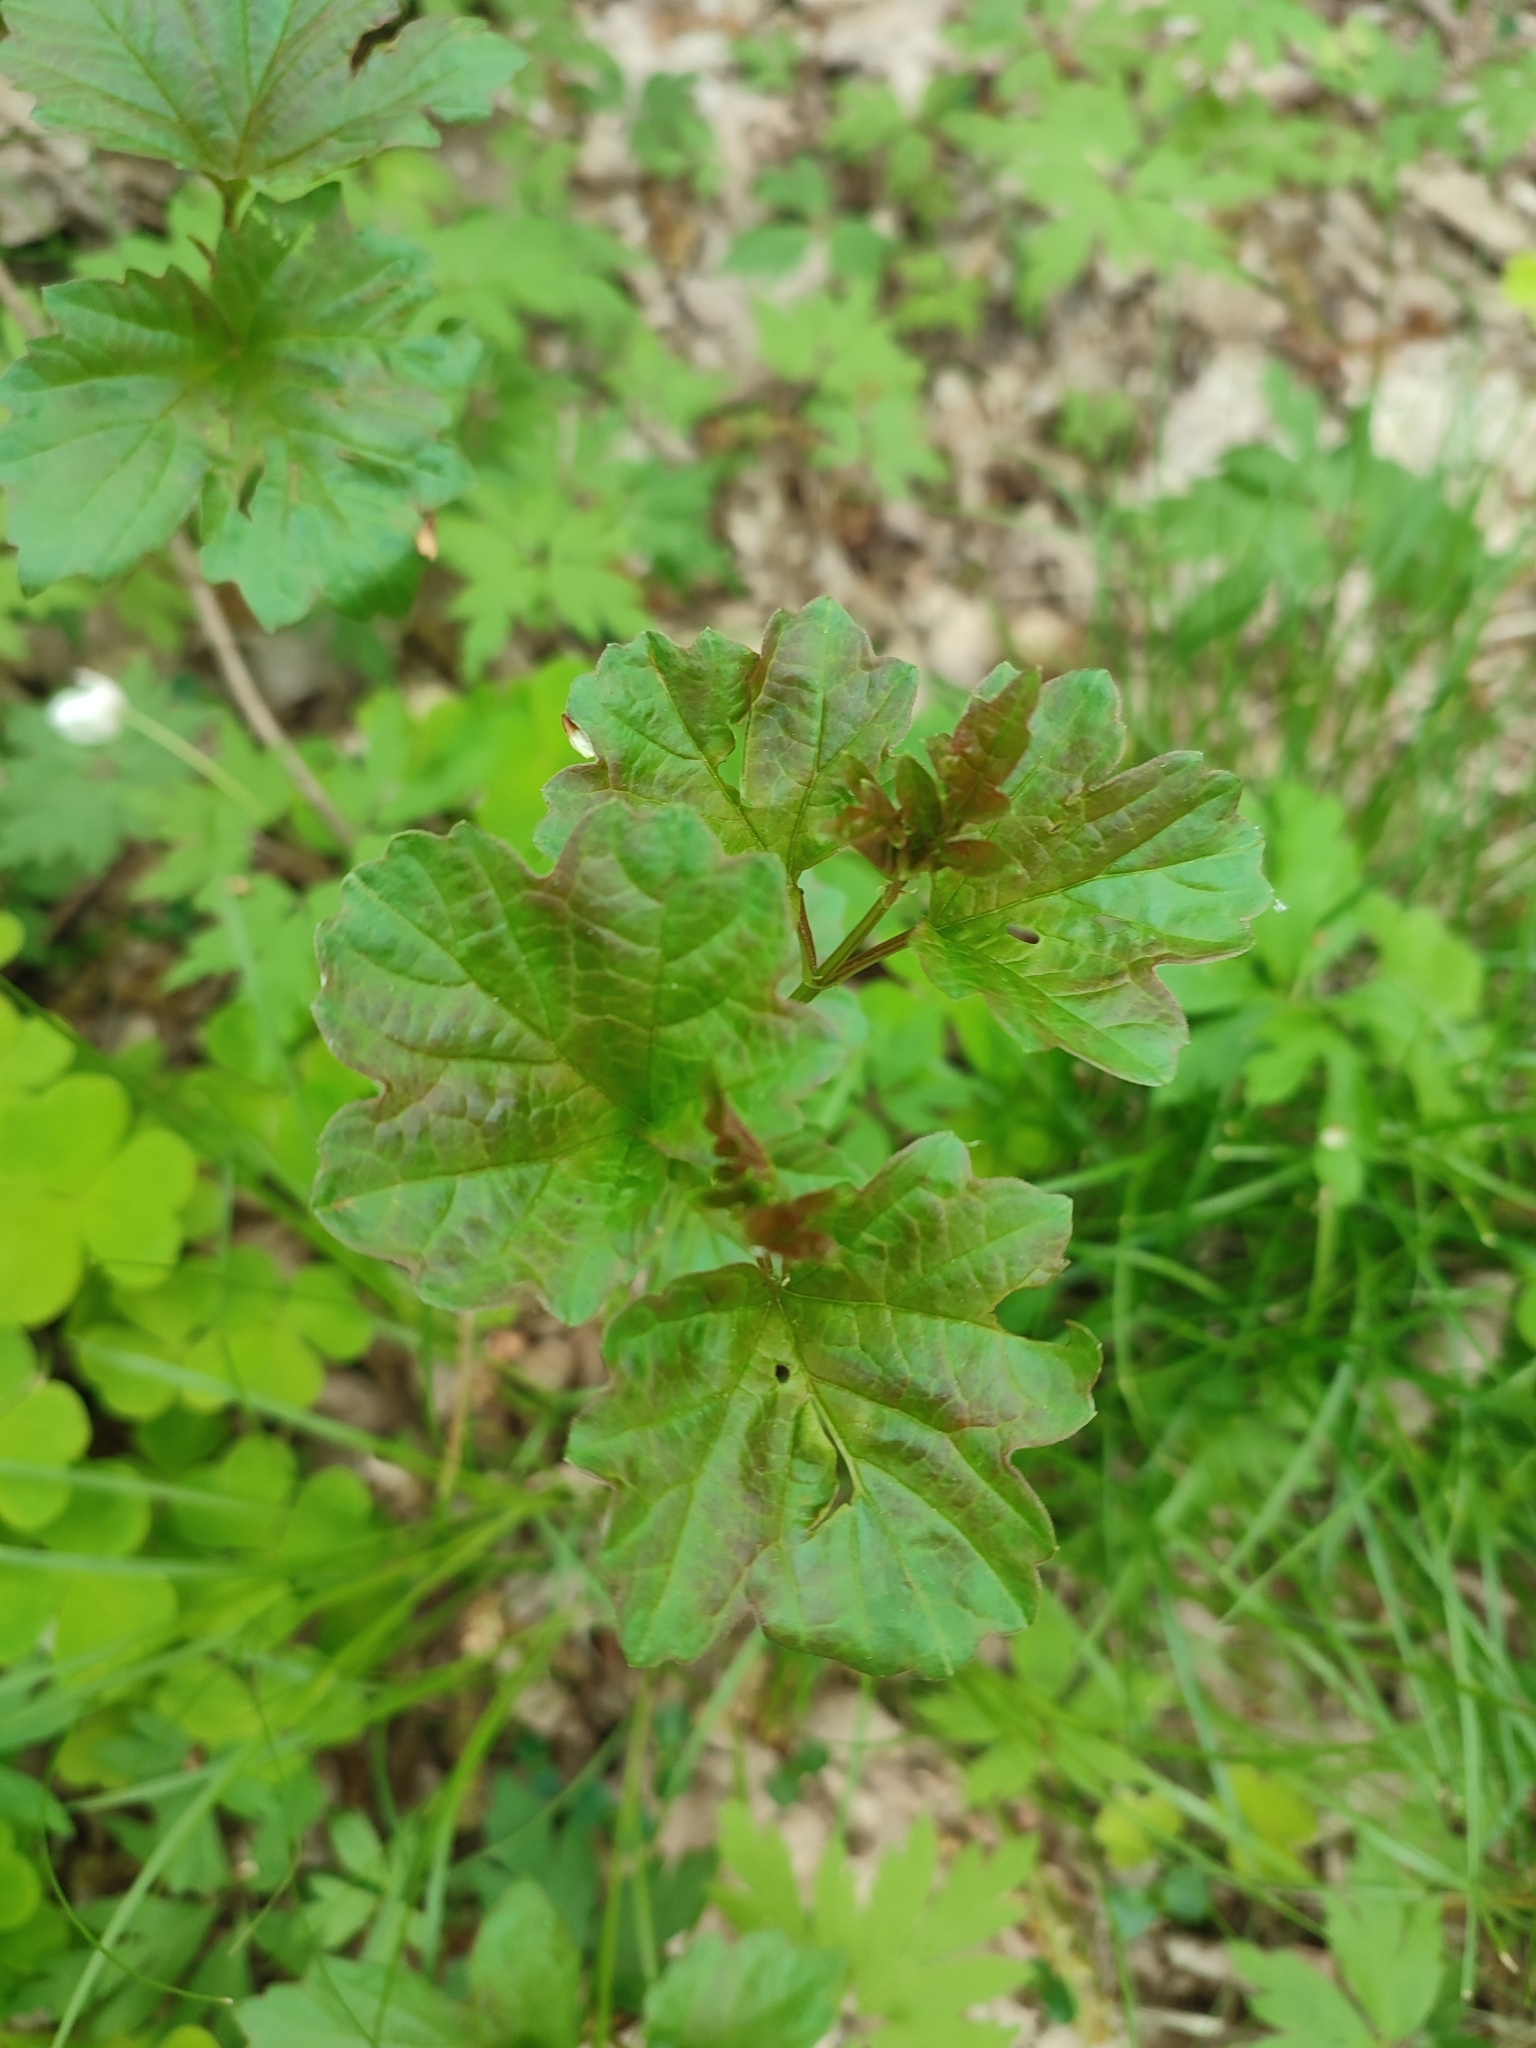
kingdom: Plantae
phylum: Tracheophyta
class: Magnoliopsida
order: Dipsacales
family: Viburnaceae
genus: Viburnum
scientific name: Viburnum opulus
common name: Guelder-rose
